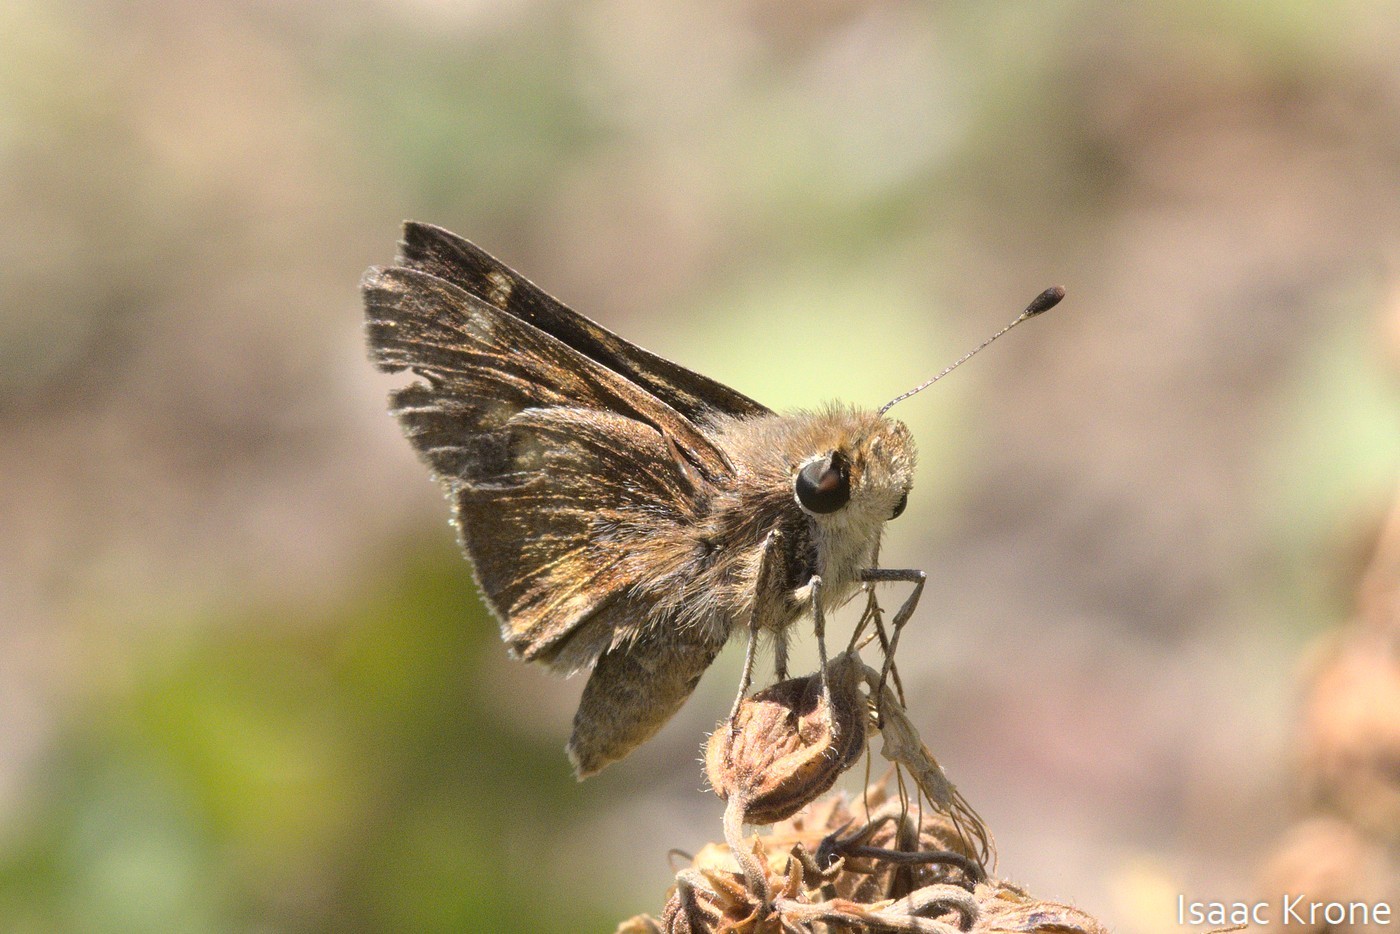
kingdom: Animalia
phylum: Arthropoda
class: Insecta
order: Lepidoptera
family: Hesperiidae
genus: Lon
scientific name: Lon melane
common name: Umber skipper
